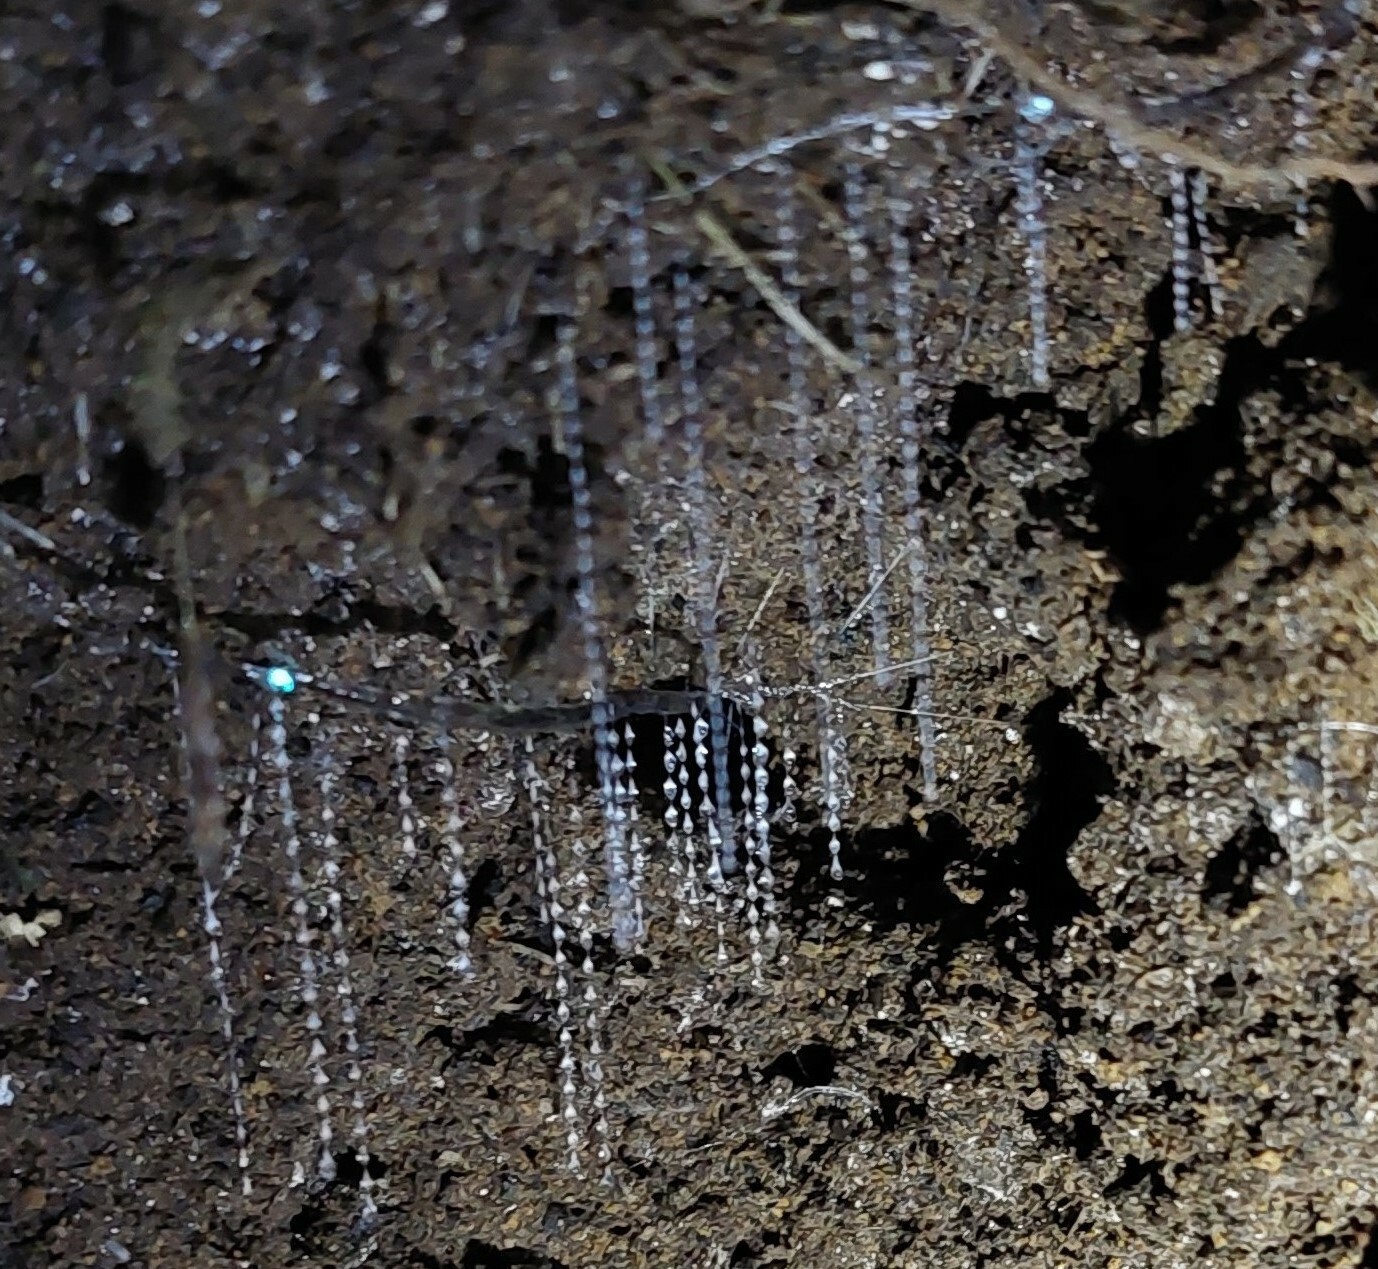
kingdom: Animalia
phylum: Arthropoda
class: Insecta
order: Diptera
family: Keroplatidae
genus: Arachnocampa
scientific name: Arachnocampa luminosa
